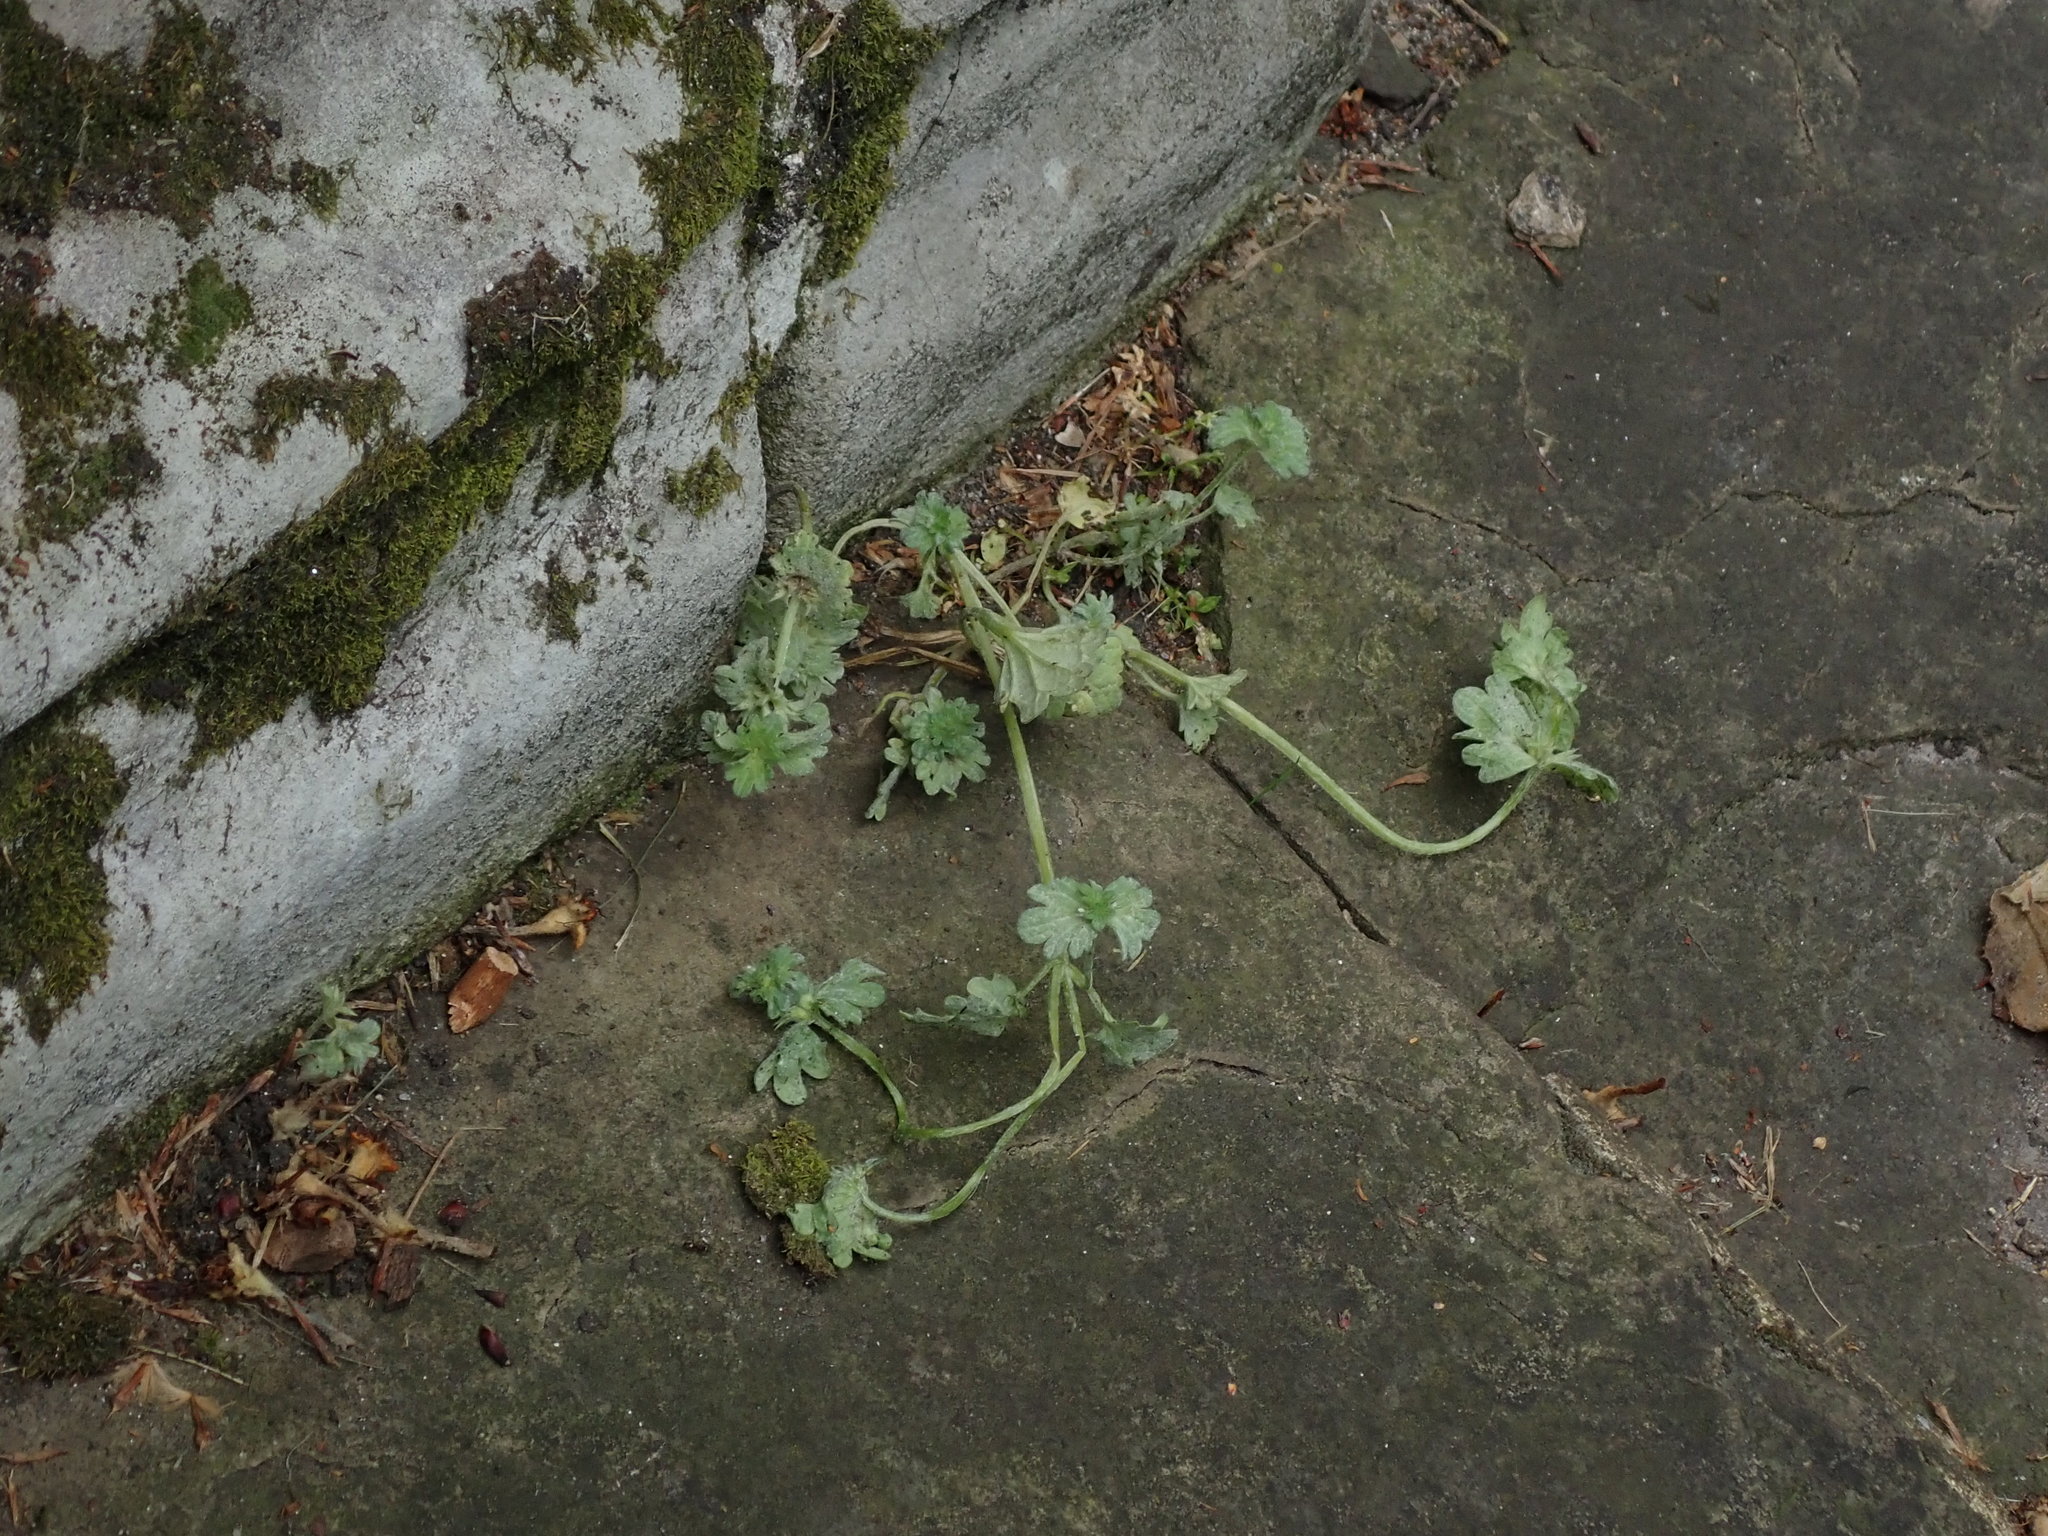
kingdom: Plantae
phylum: Tracheophyta
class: Magnoliopsida
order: Lamiales
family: Lamiaceae
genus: Lamium
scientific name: Lamium amplexicaule
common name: Henbit dead-nettle
